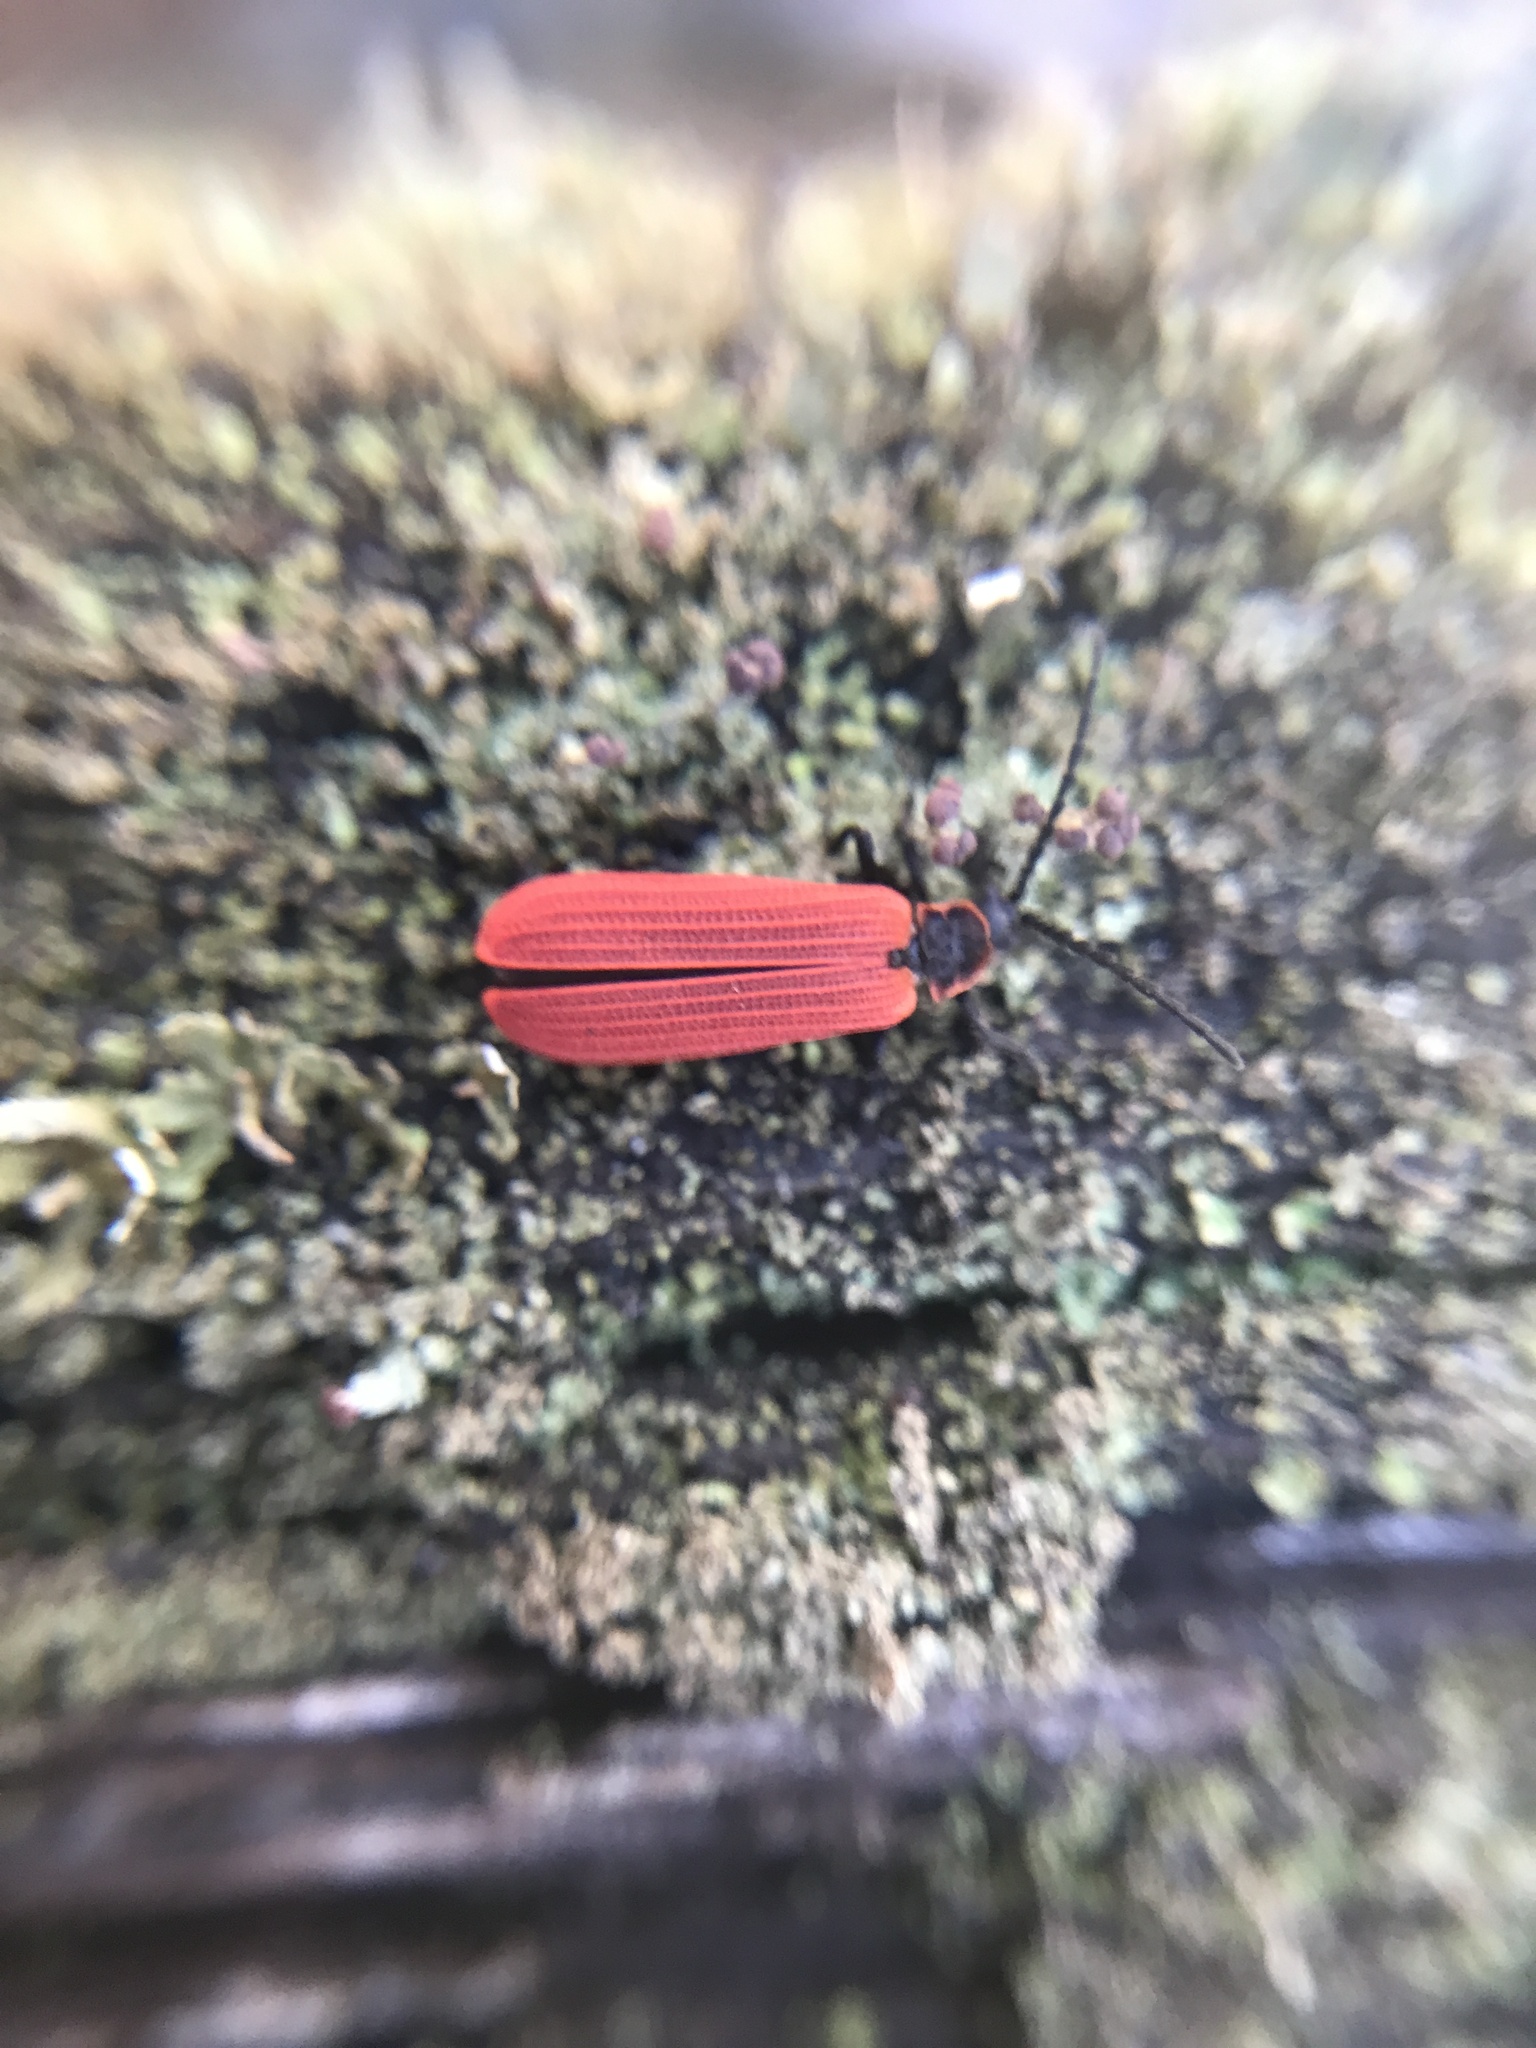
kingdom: Animalia
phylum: Arthropoda
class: Insecta
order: Coleoptera
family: Lycidae
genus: Dictyoptera
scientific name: Dictyoptera aurora
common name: Golden net-winged beetle
